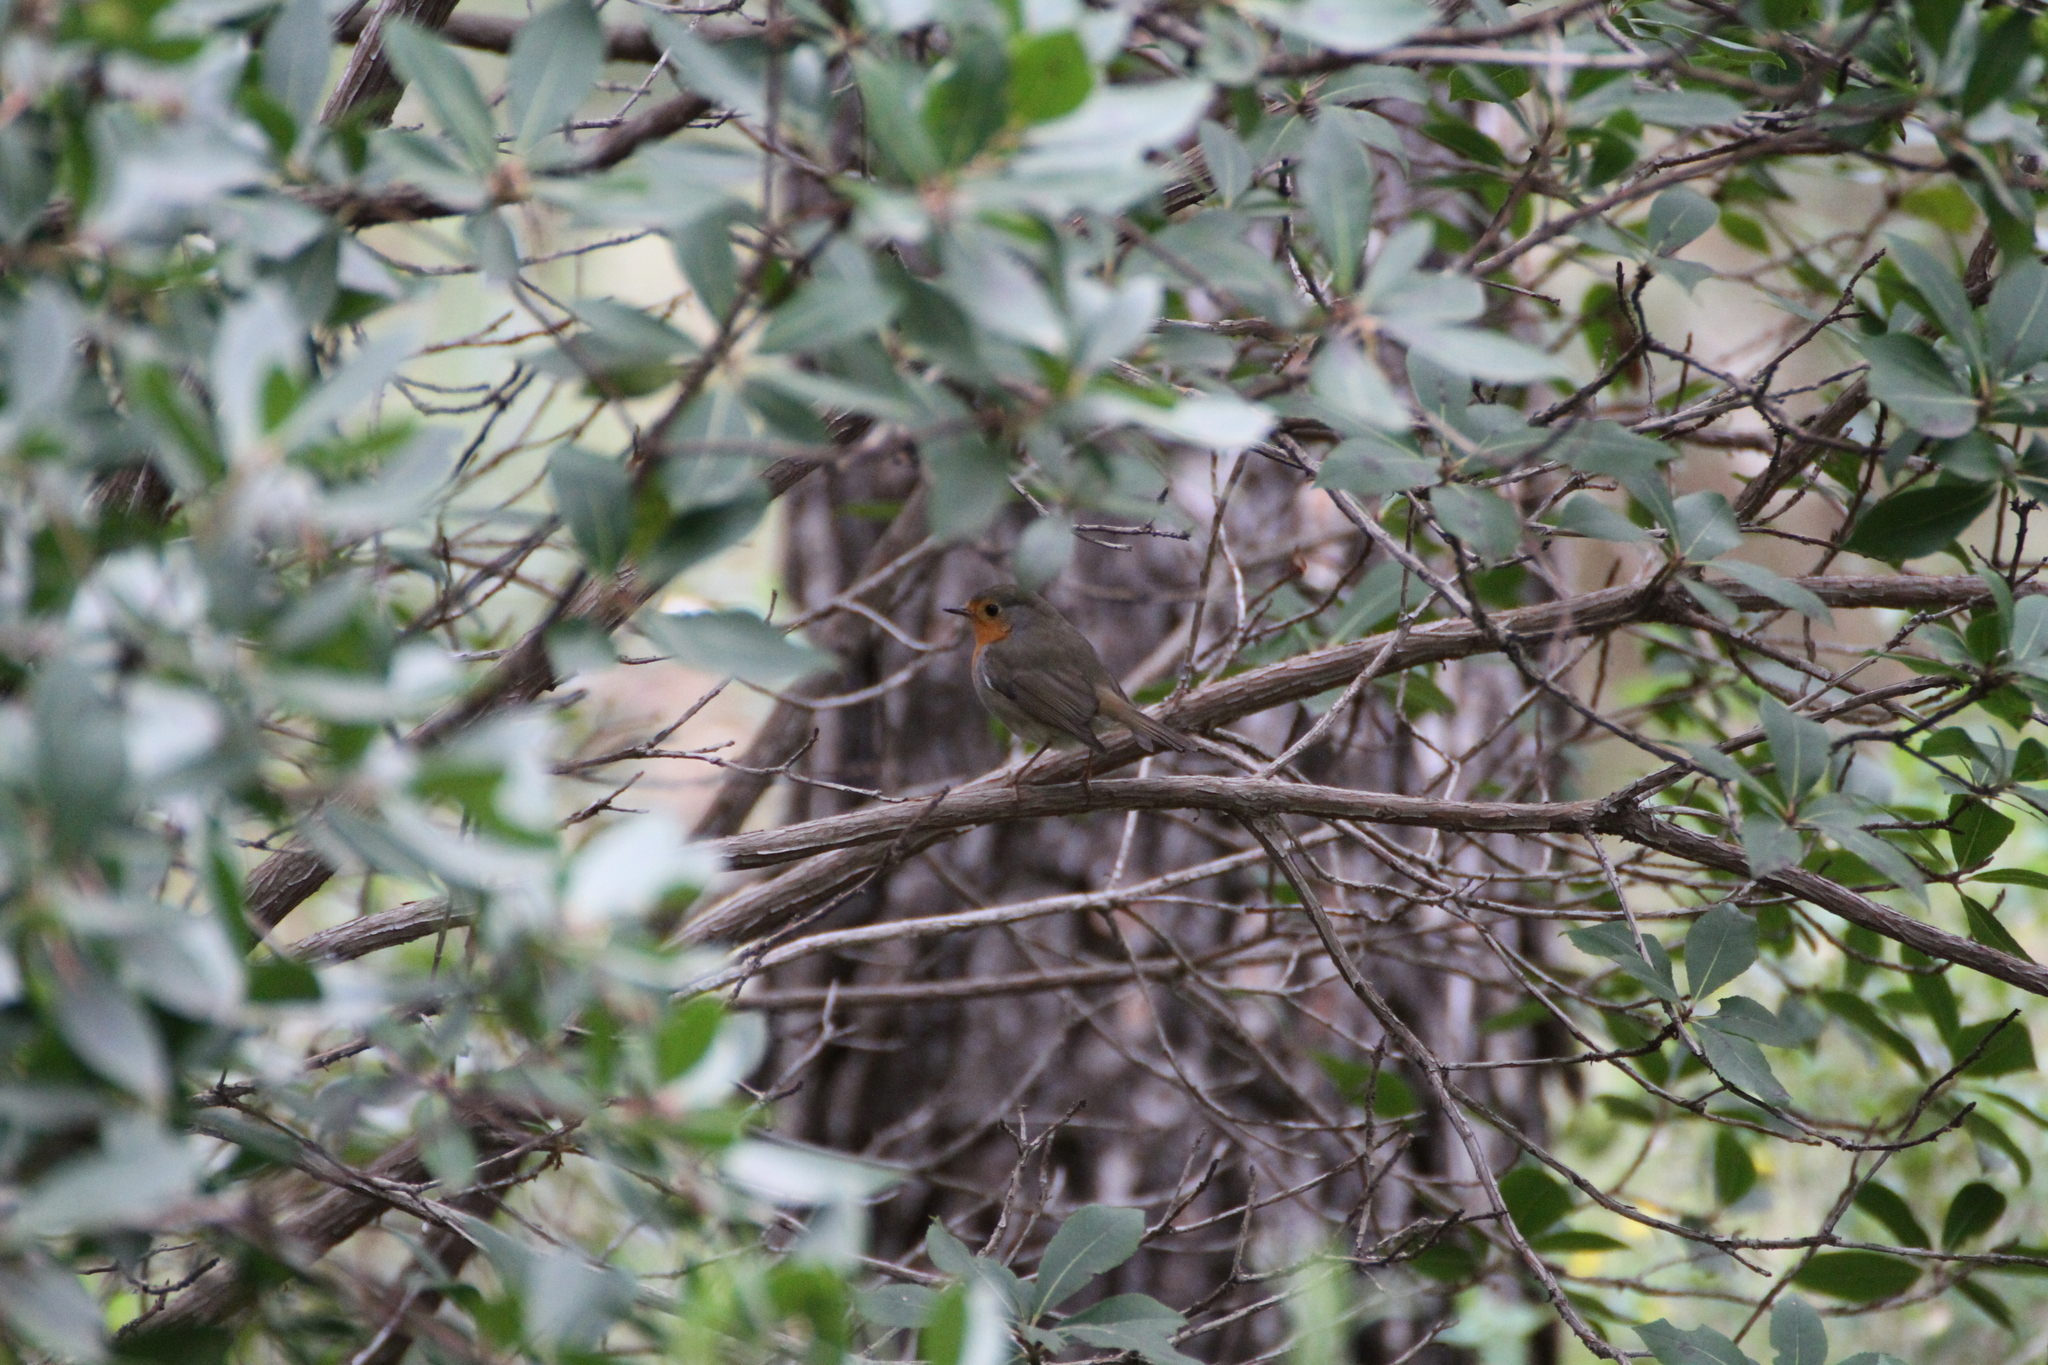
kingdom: Animalia
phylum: Chordata
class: Aves
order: Passeriformes
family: Muscicapidae
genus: Erithacus
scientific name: Erithacus rubecula
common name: European robin
